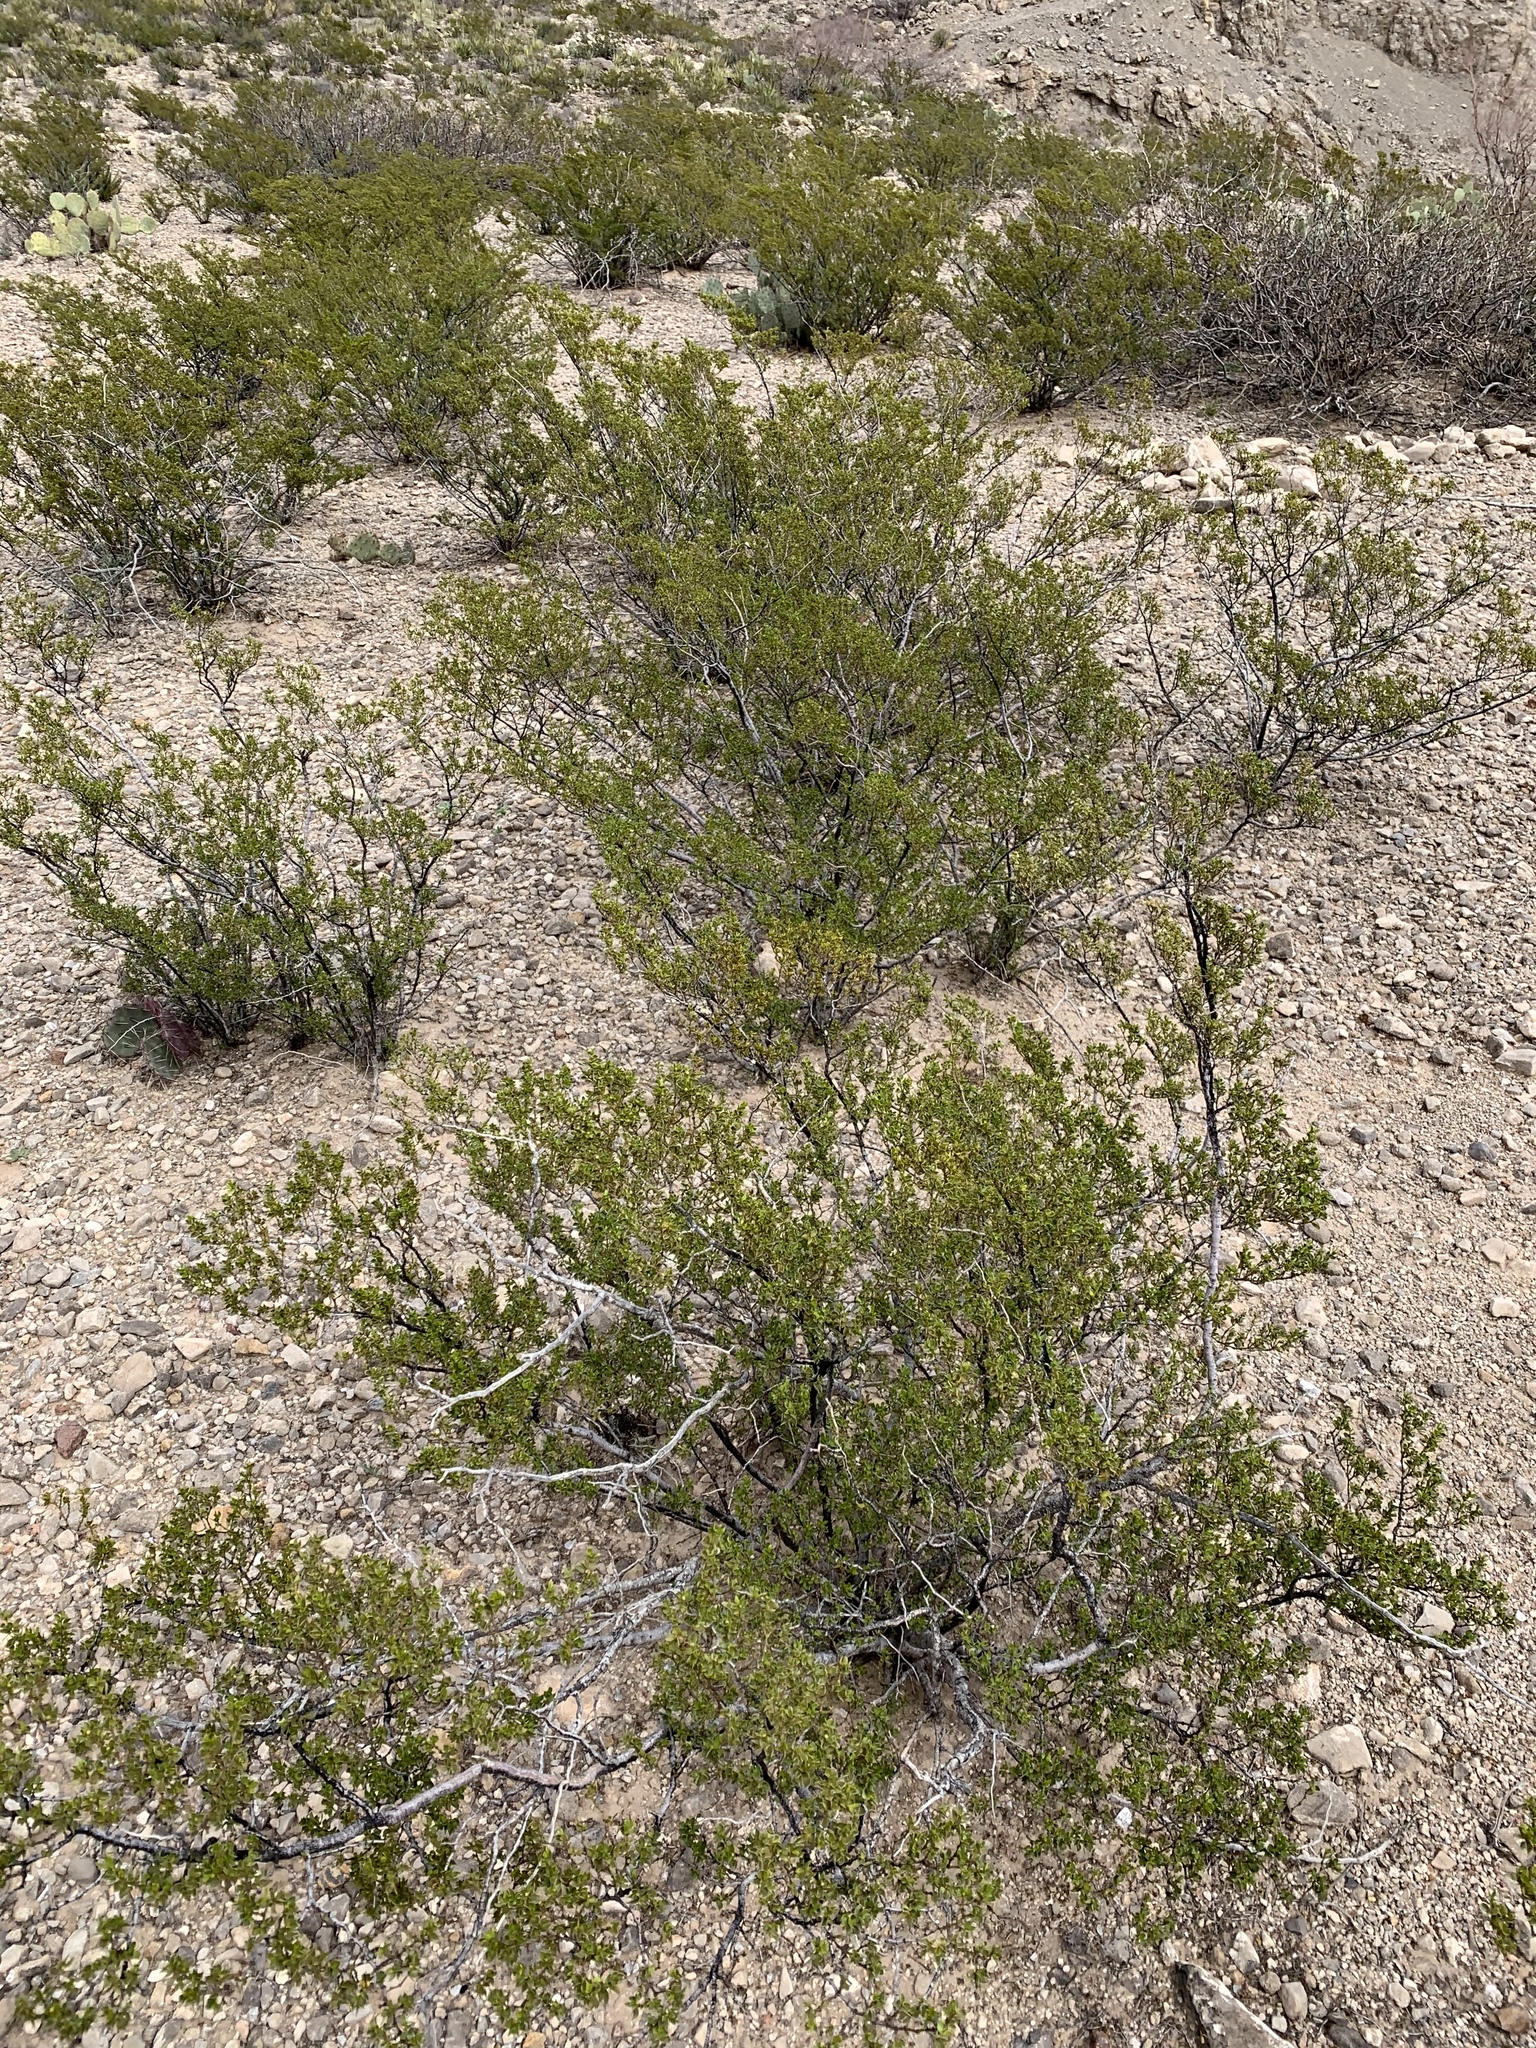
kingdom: Plantae
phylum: Tracheophyta
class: Magnoliopsida
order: Zygophyllales
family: Zygophyllaceae
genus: Larrea
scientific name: Larrea tridentata
